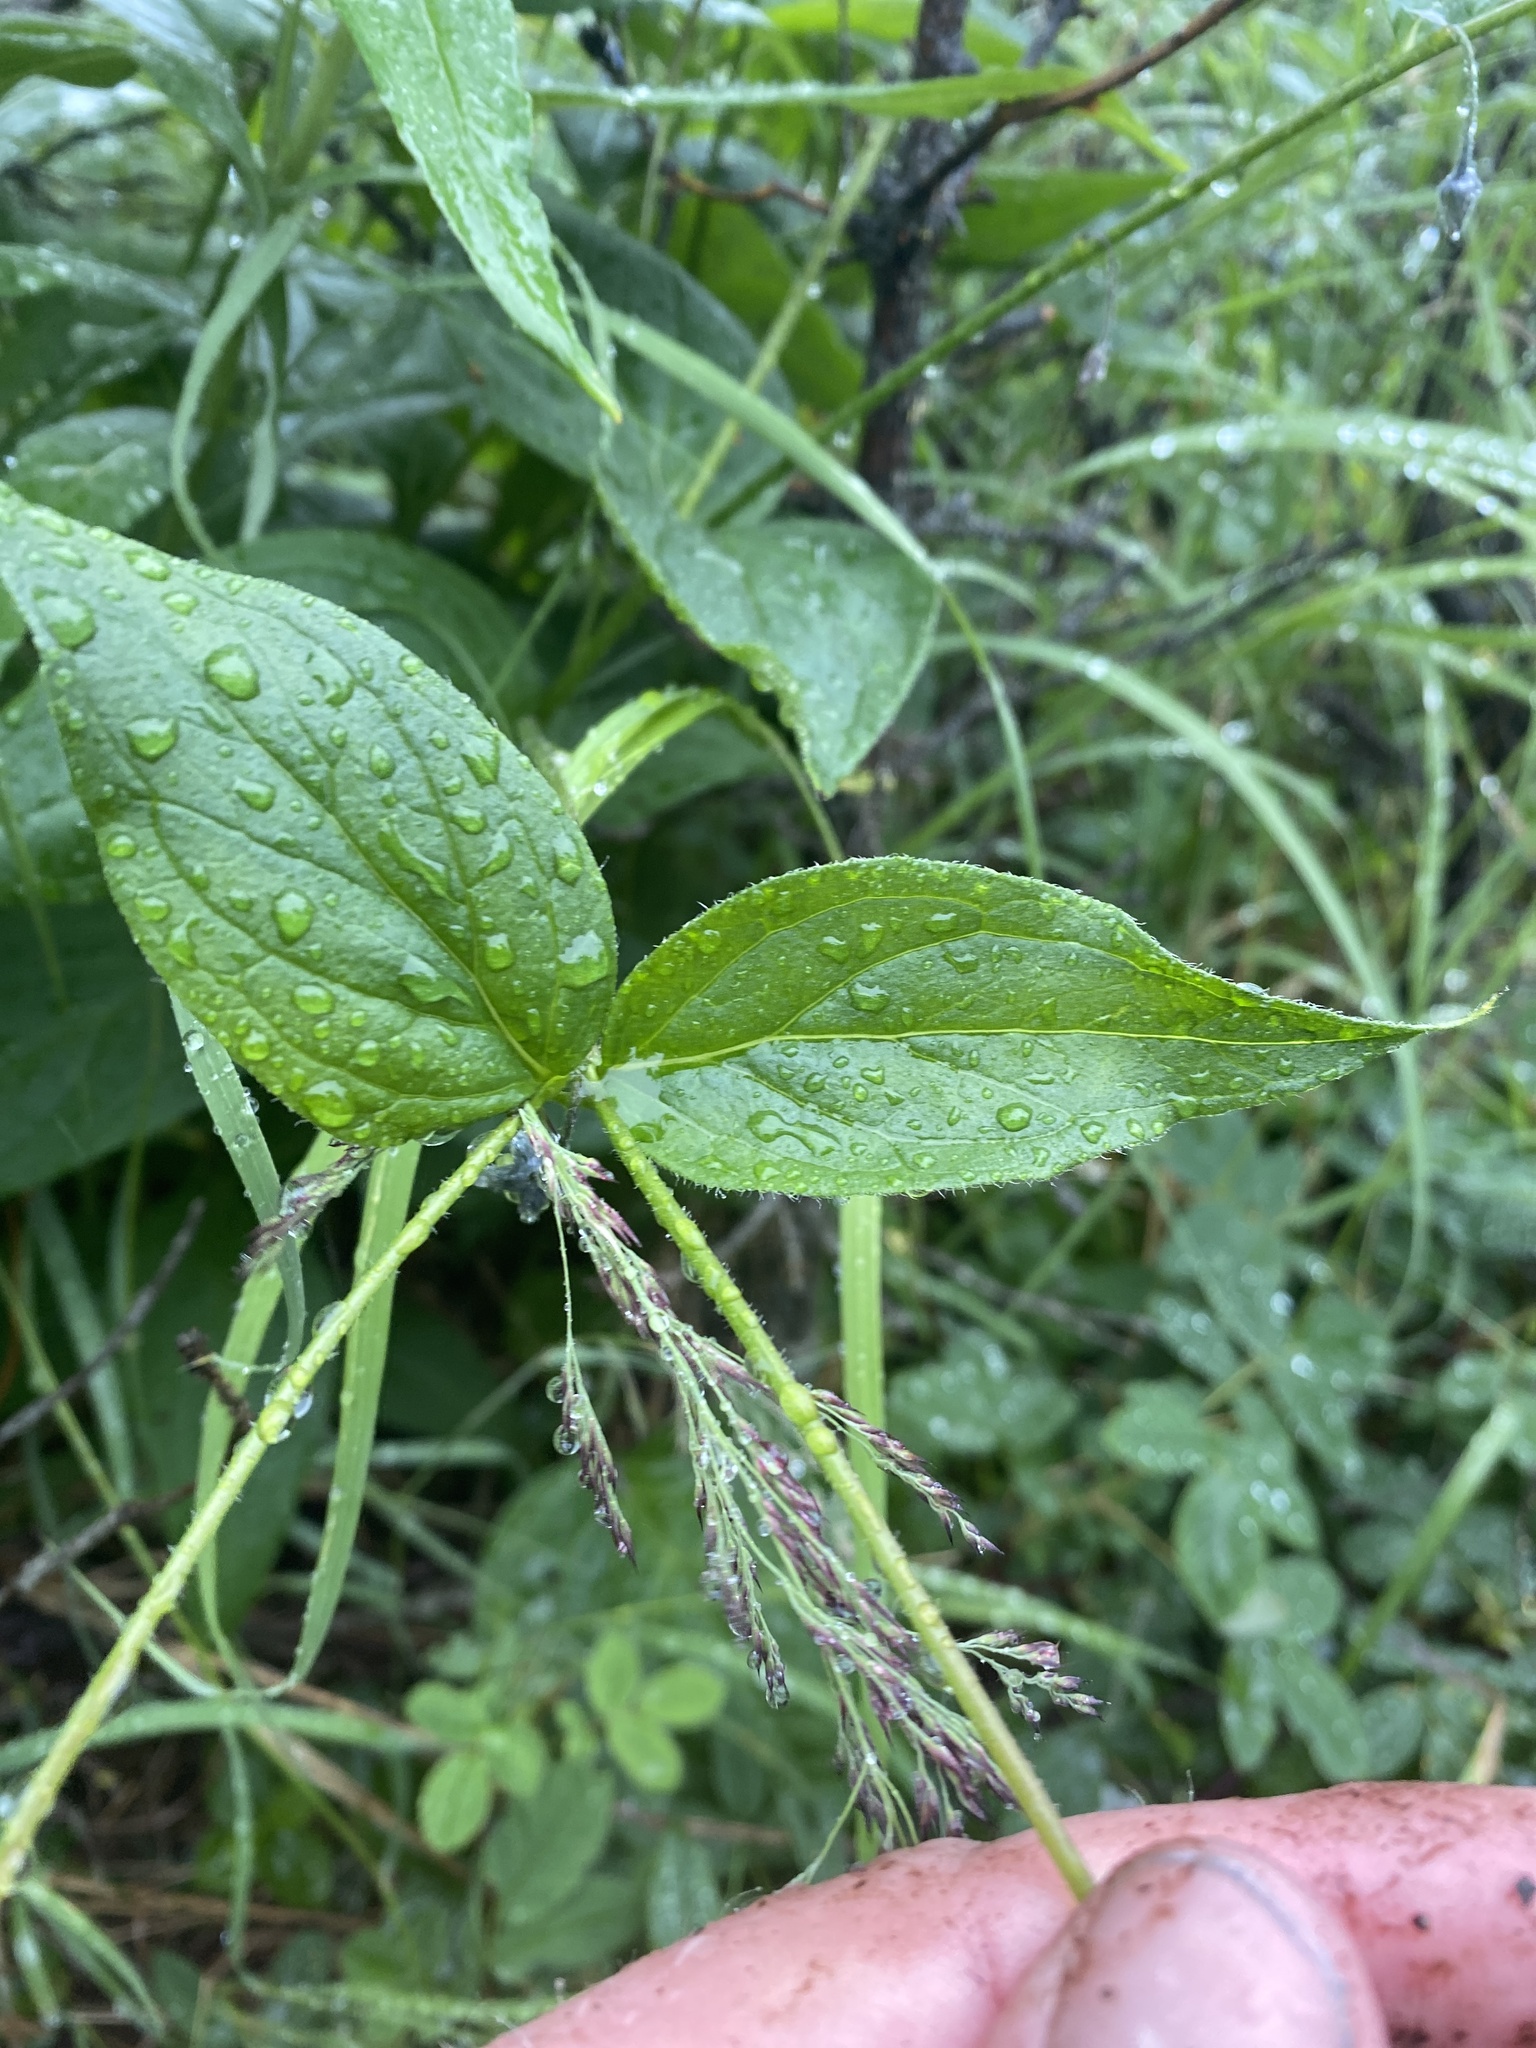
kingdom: Plantae
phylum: Tracheophyta
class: Magnoliopsida
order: Boraginales
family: Boraginaceae
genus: Mertensia
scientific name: Mertensia paniculata
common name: Panicled bluebells
